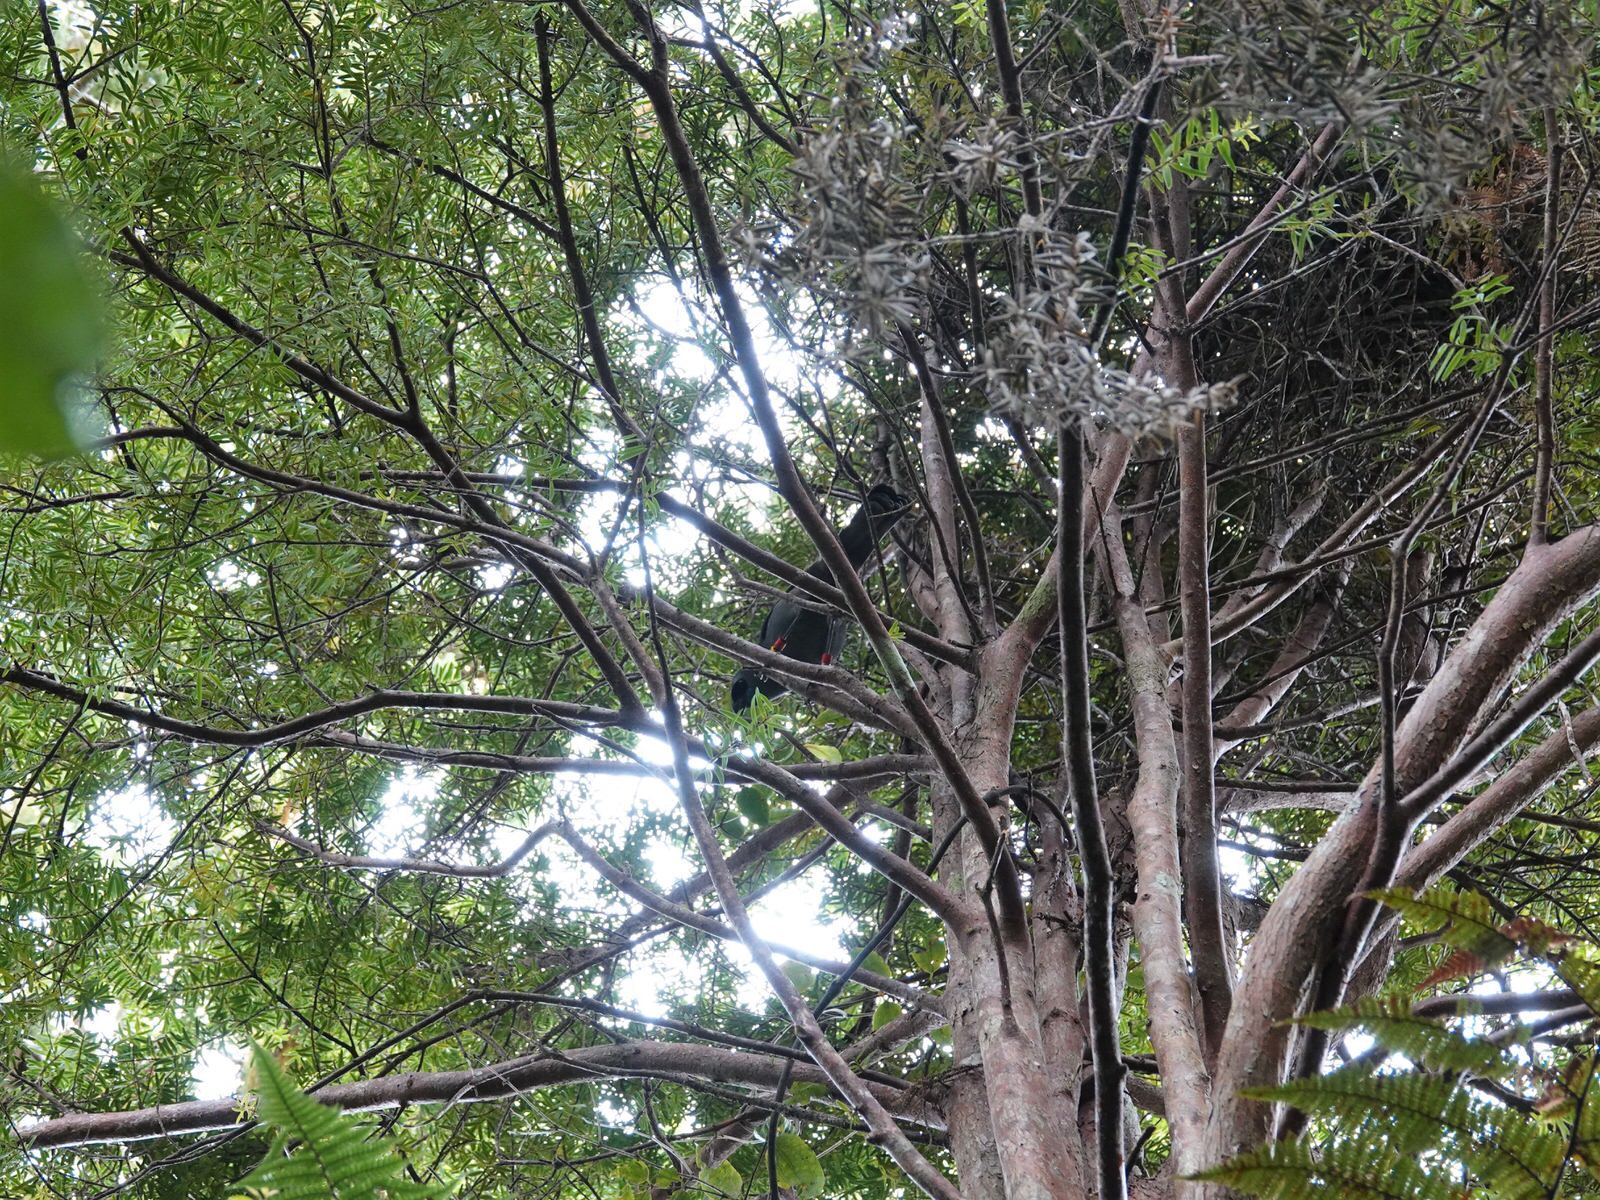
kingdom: Animalia
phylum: Chordata
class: Aves
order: Passeriformes
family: Callaeatidae
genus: Callaeas
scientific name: Callaeas cinereus
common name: South island kokako
